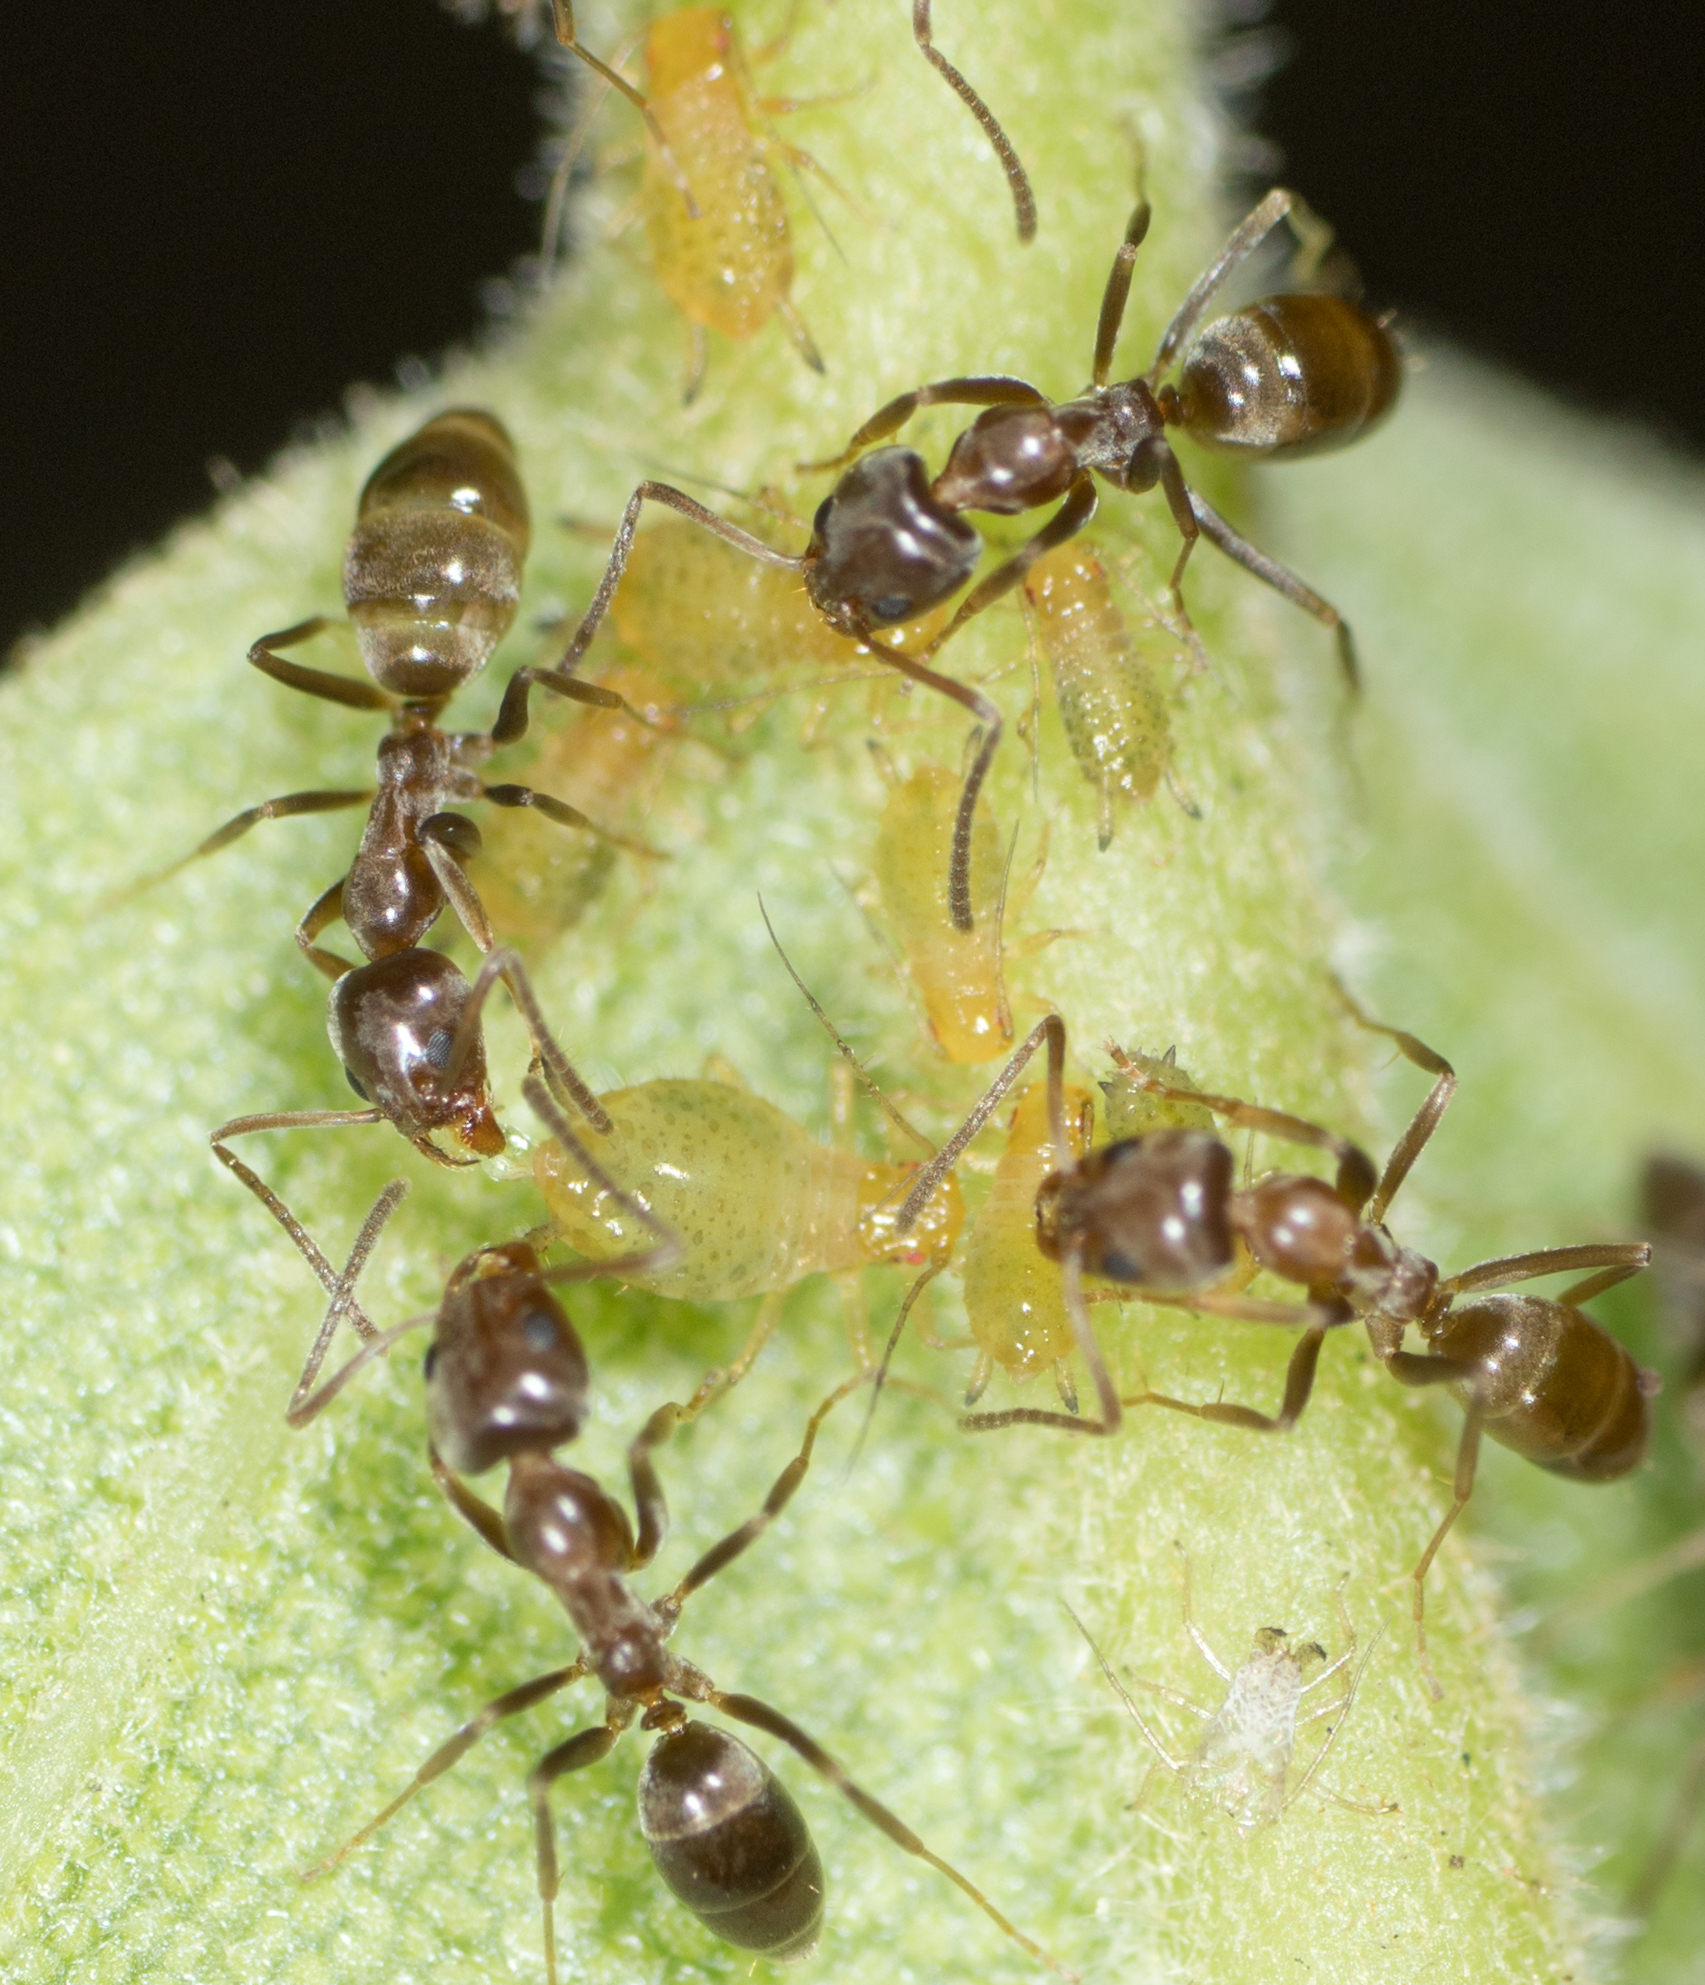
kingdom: Animalia
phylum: Arthropoda
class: Insecta
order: Hymenoptera
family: Formicidae
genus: Linepithema
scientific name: Linepithema humile
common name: Argentine ant
